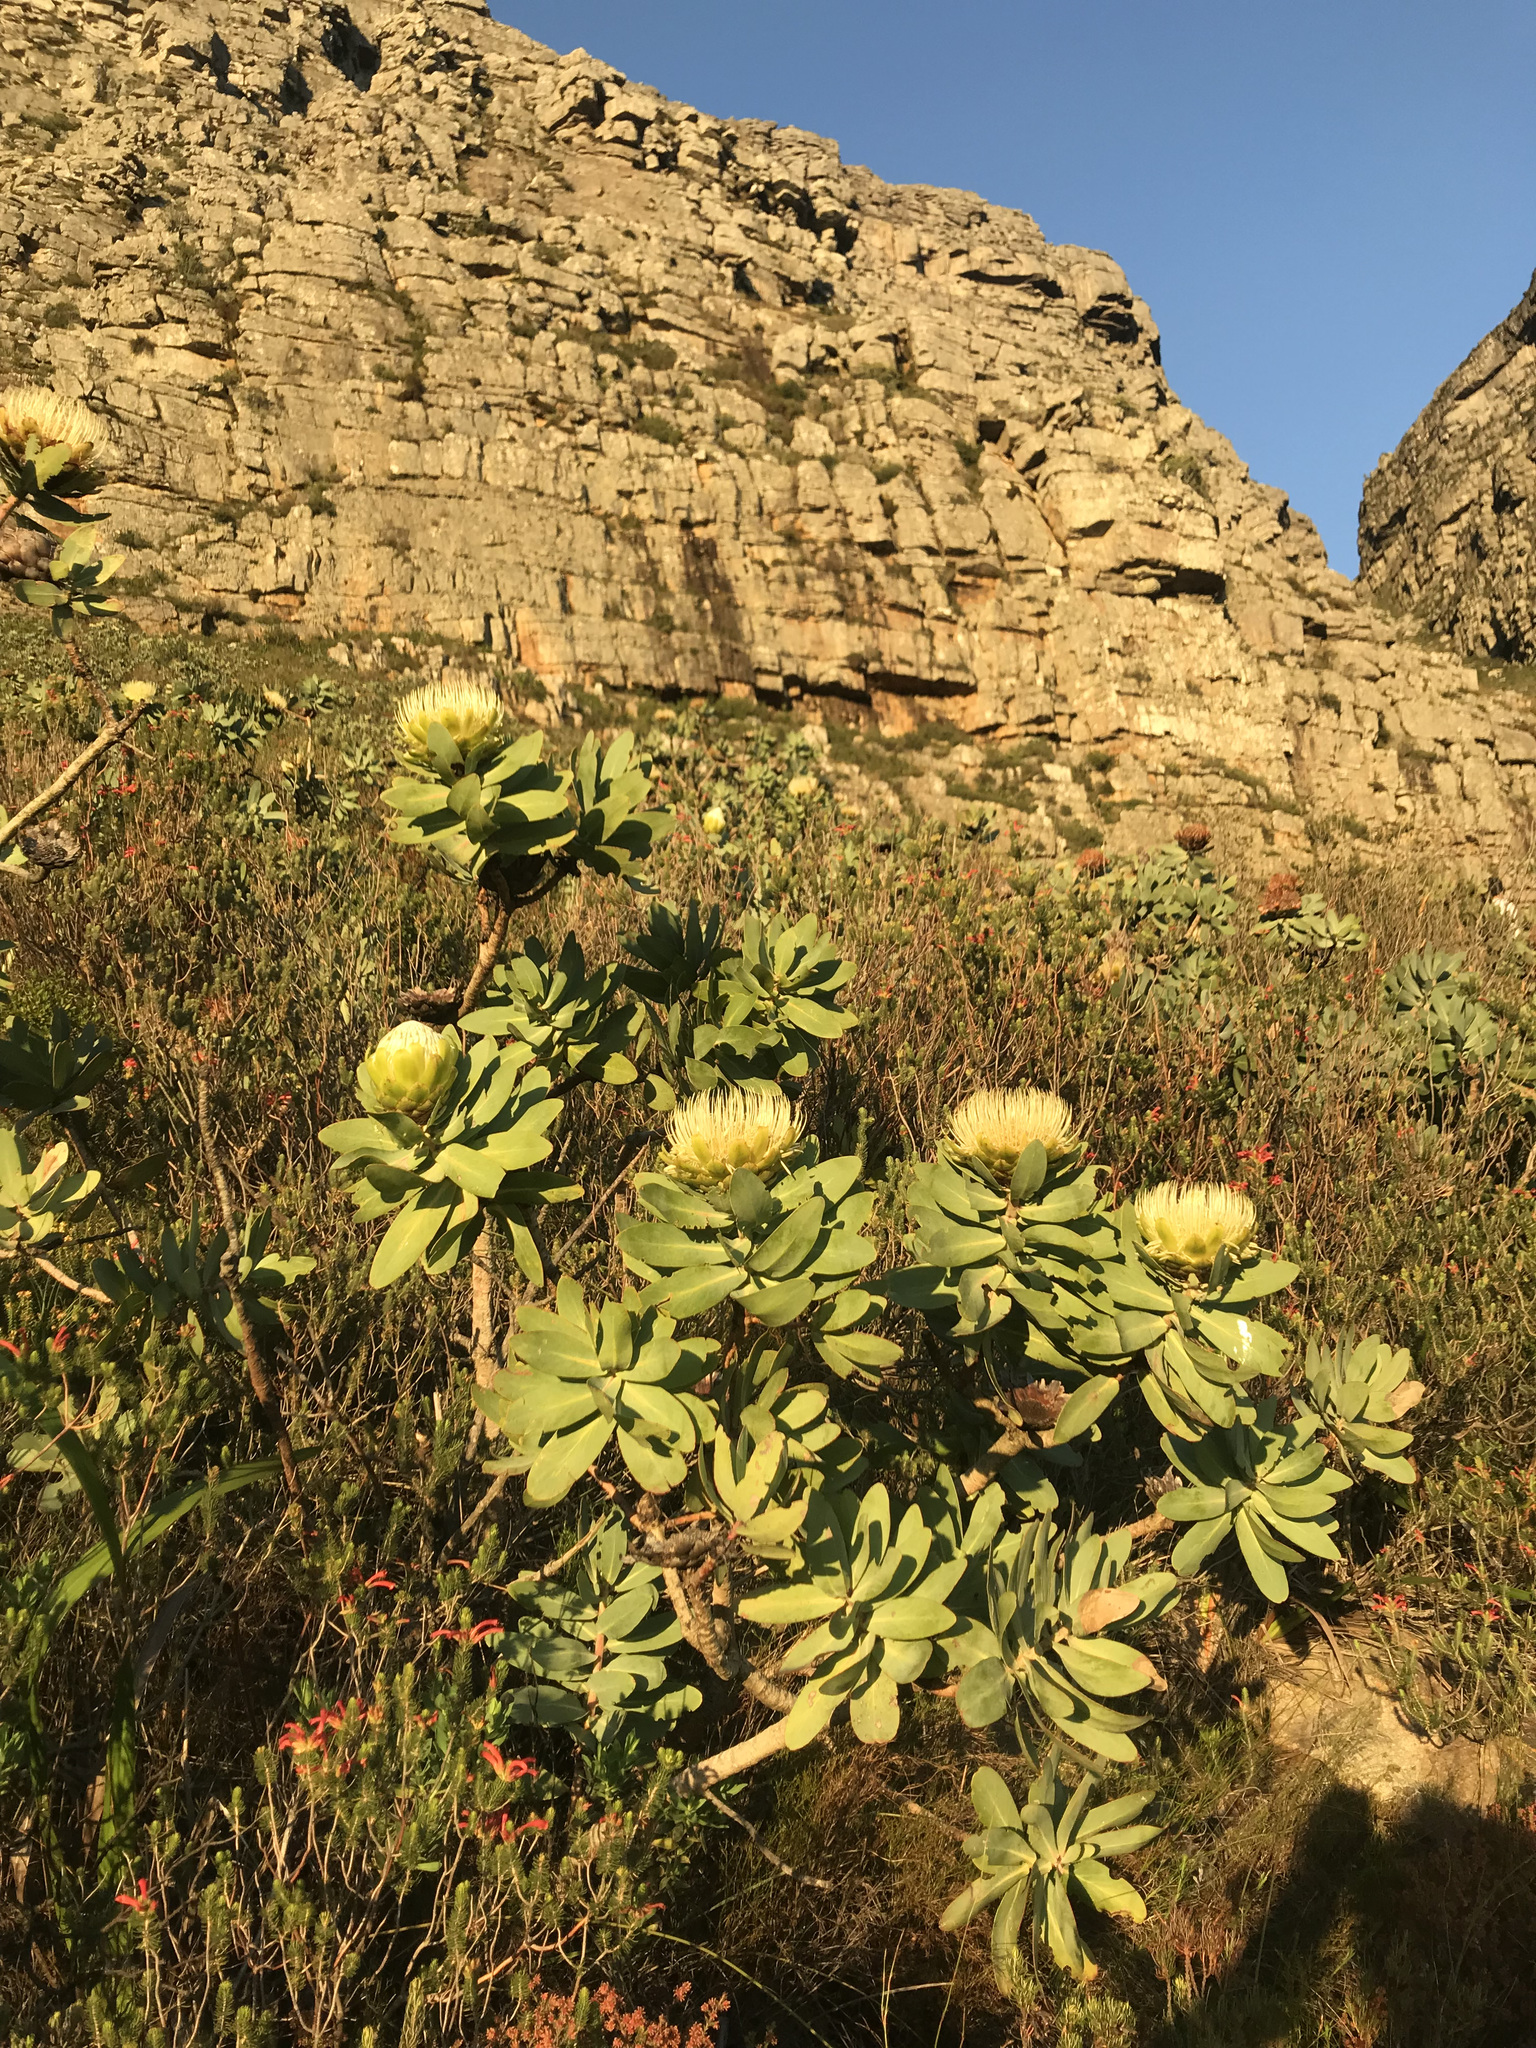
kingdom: Plantae
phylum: Tracheophyta
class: Magnoliopsida
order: Proteales
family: Proteaceae
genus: Protea
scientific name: Protea nitida
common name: Tree protea
